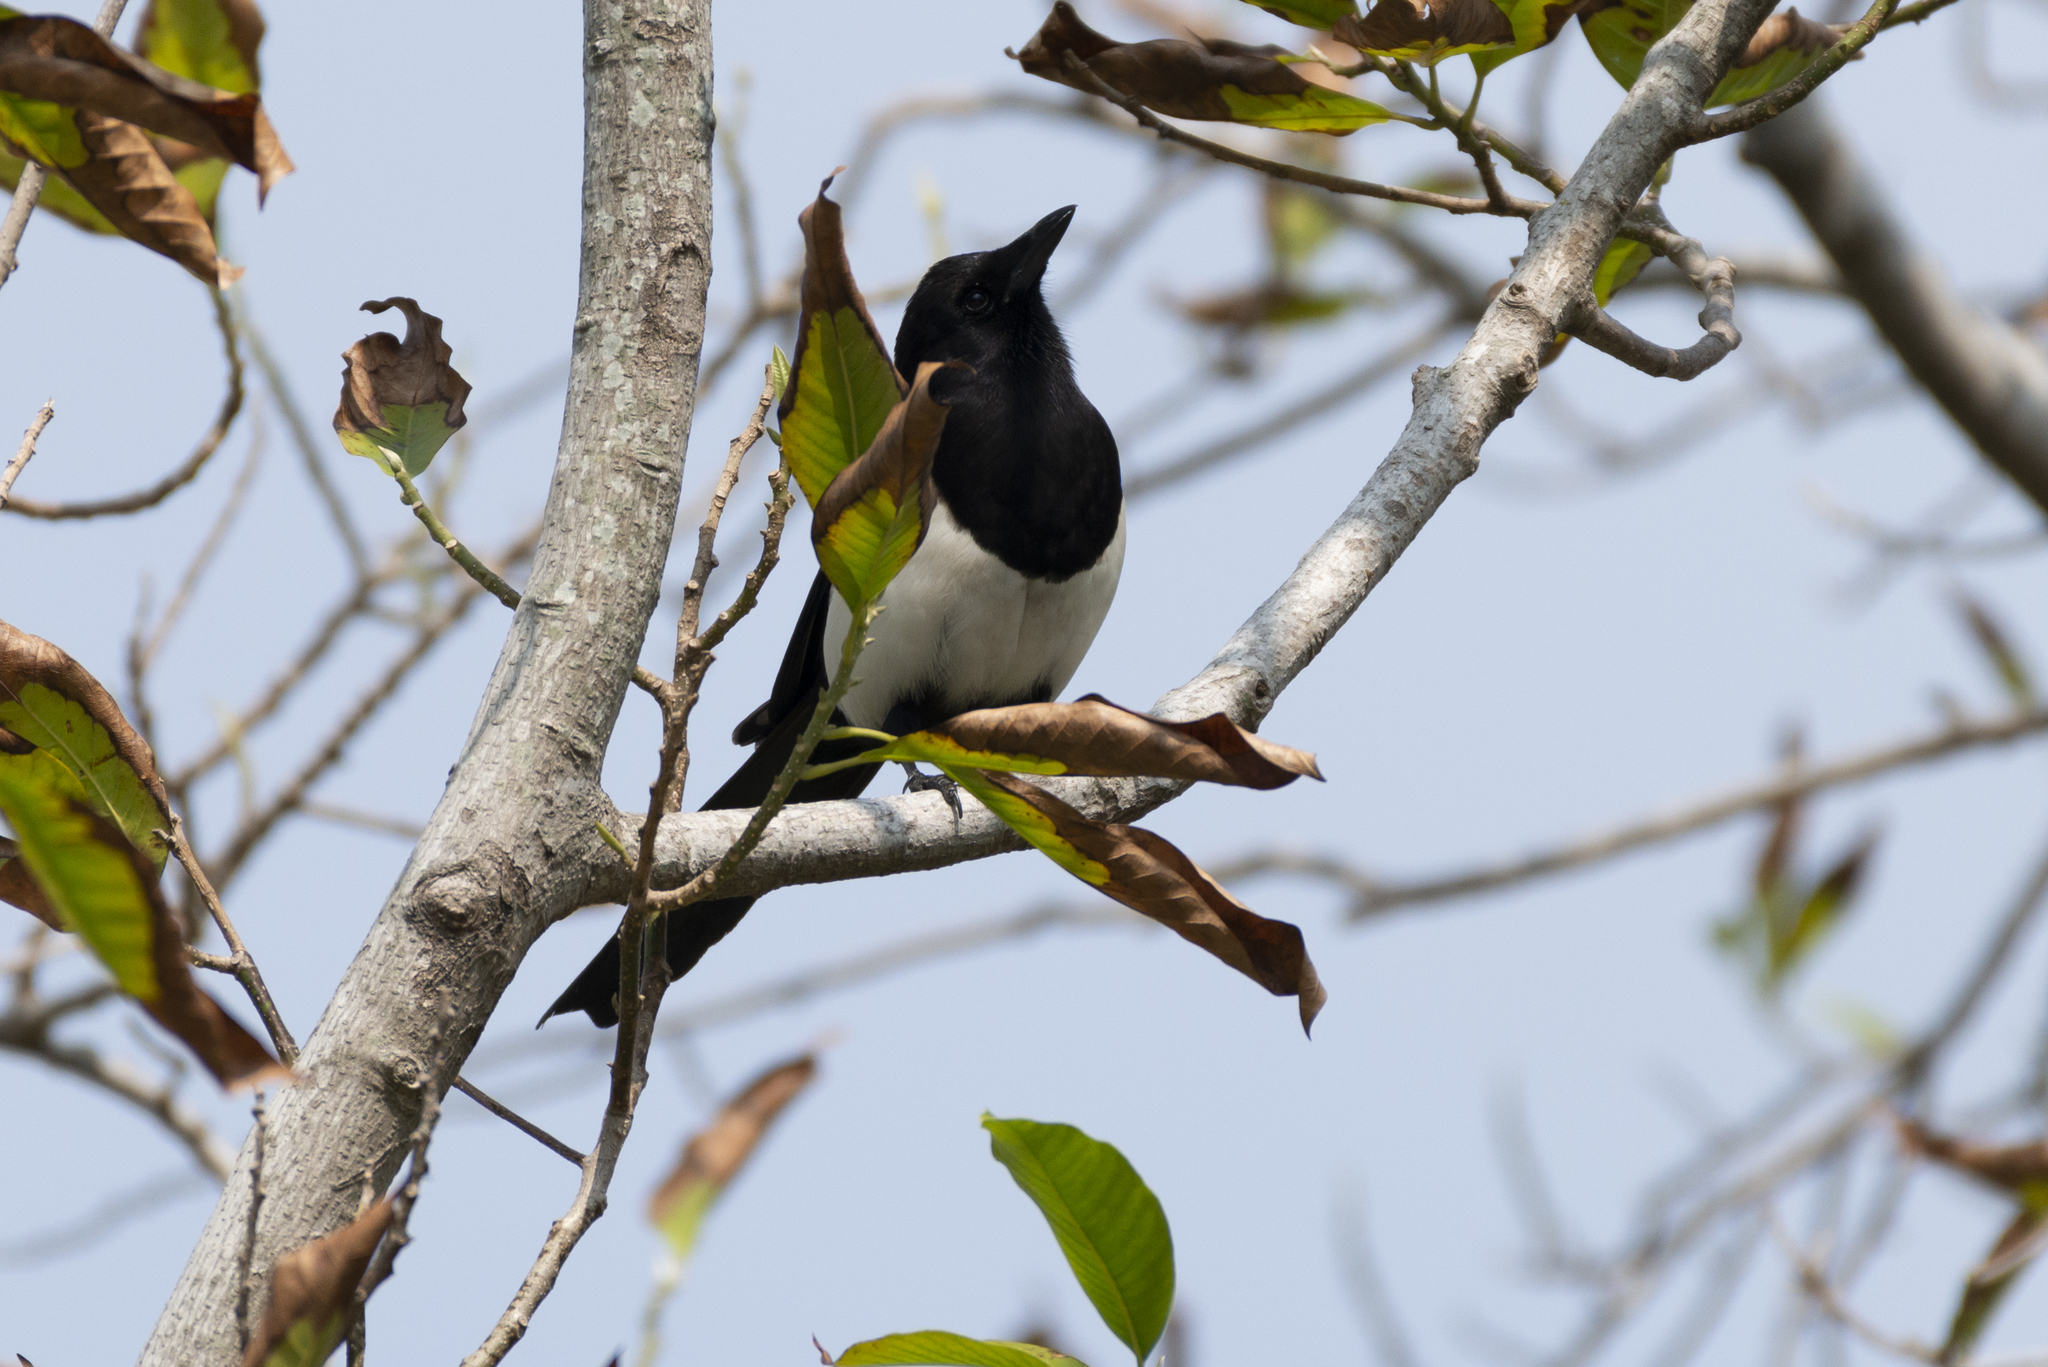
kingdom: Animalia
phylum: Chordata
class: Aves
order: Passeriformes
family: Corvidae
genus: Pica
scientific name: Pica serica
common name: Oriental magpie
